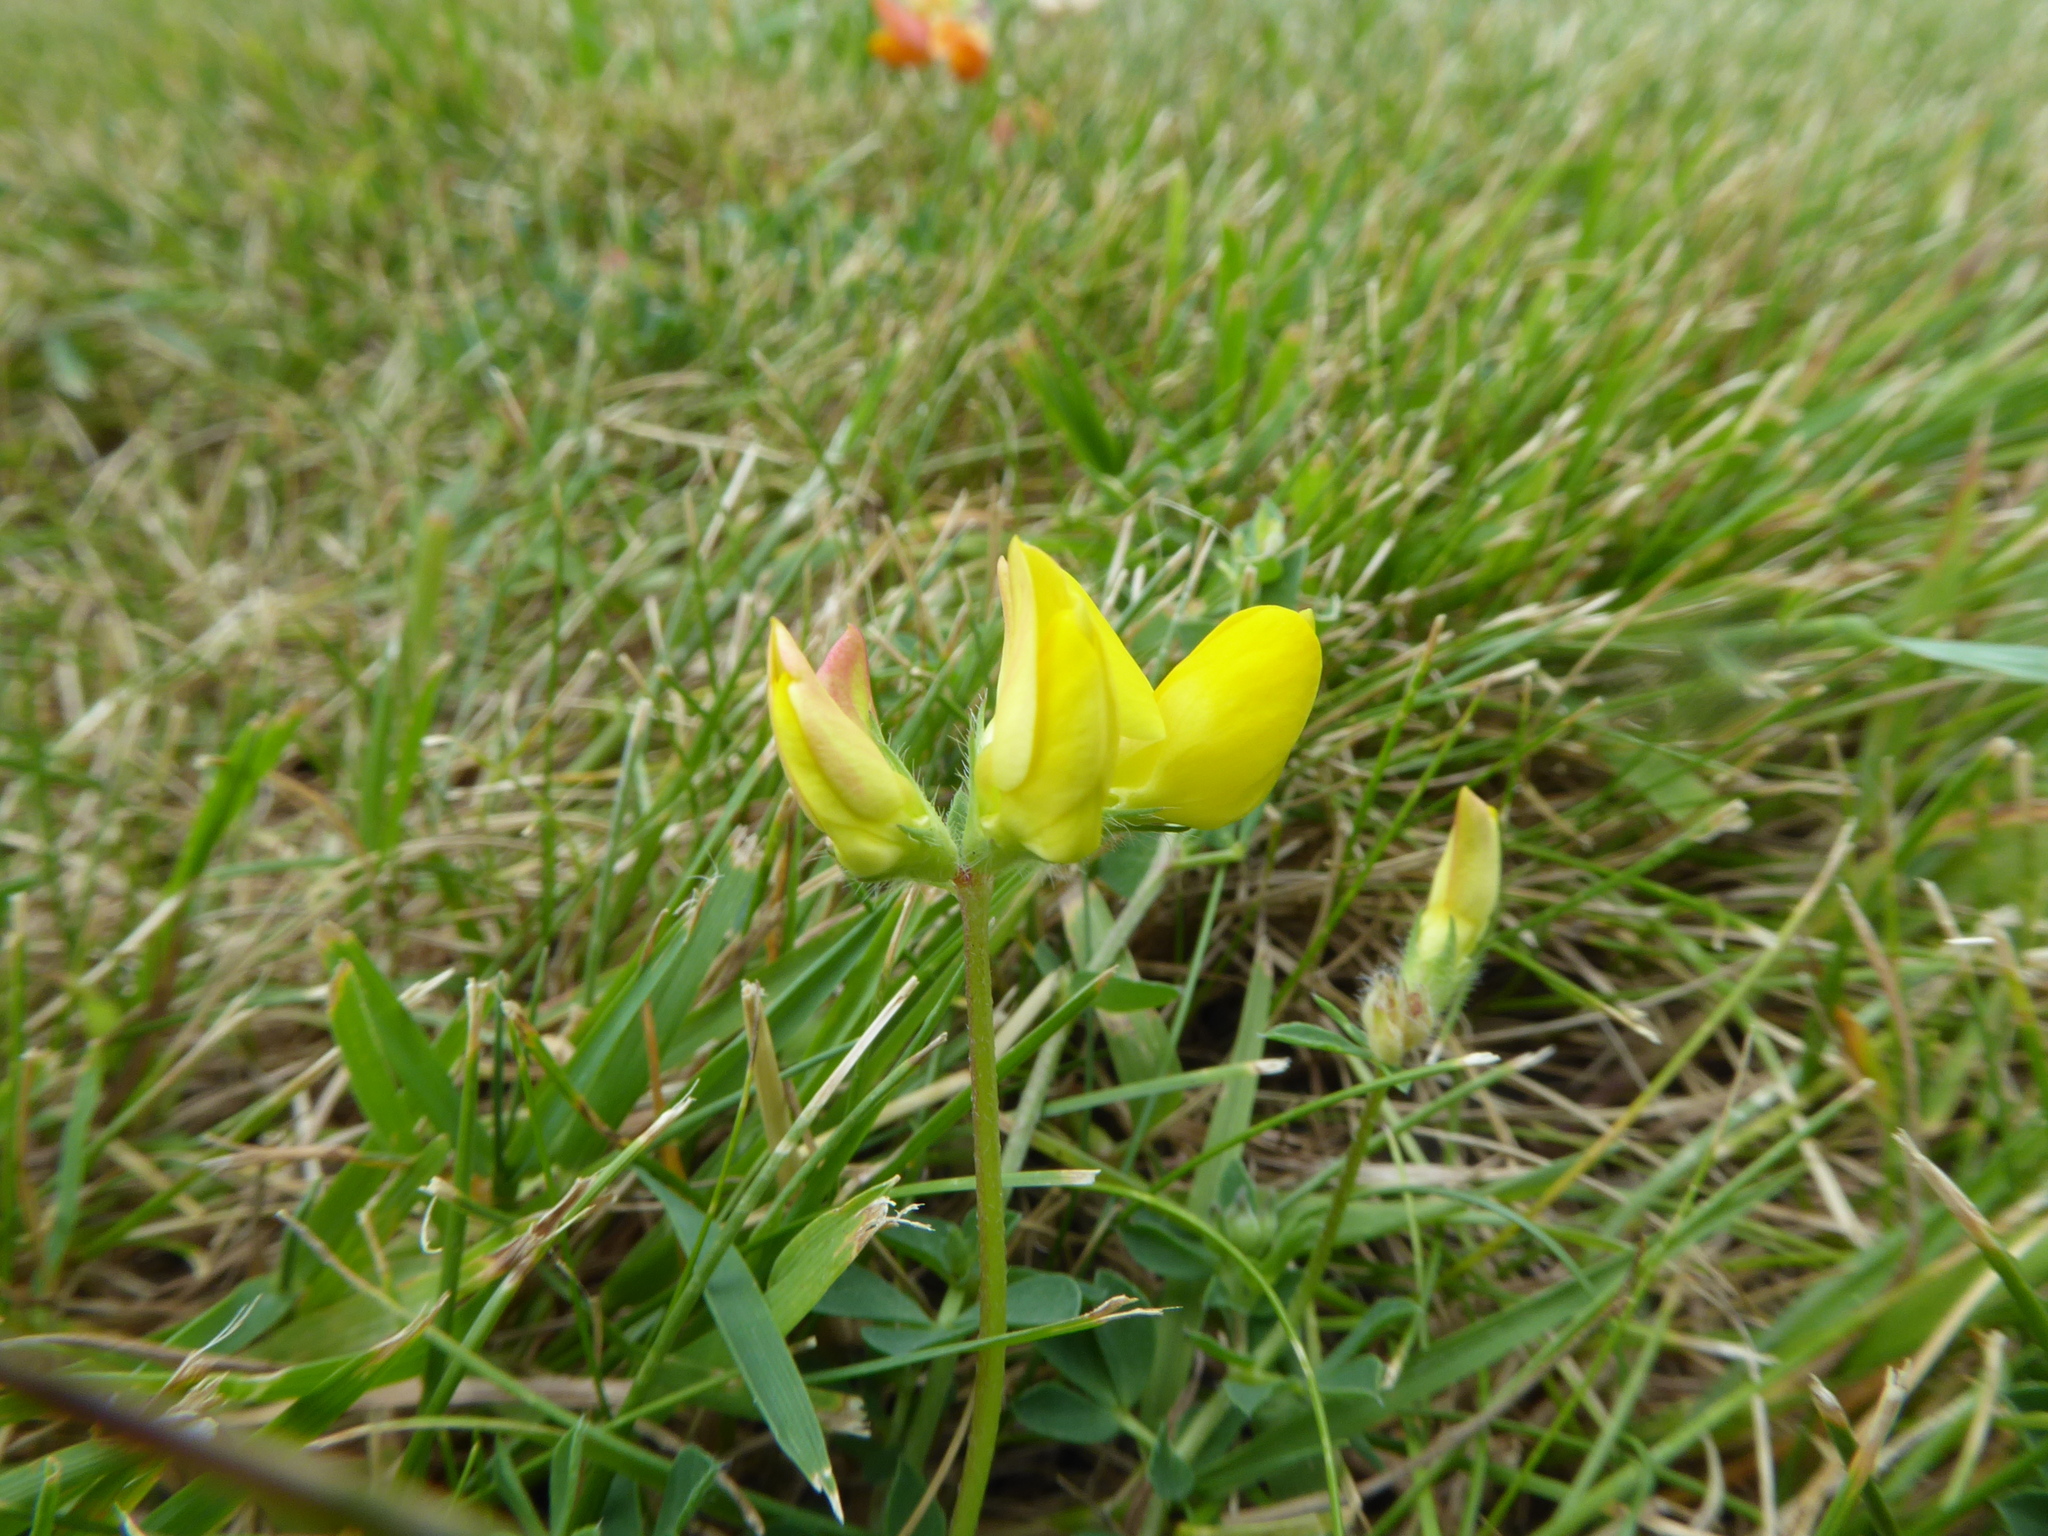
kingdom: Plantae
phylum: Tracheophyta
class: Magnoliopsida
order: Fabales
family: Fabaceae
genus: Lotus
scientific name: Lotus corniculatus
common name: Common bird's-foot-trefoil
